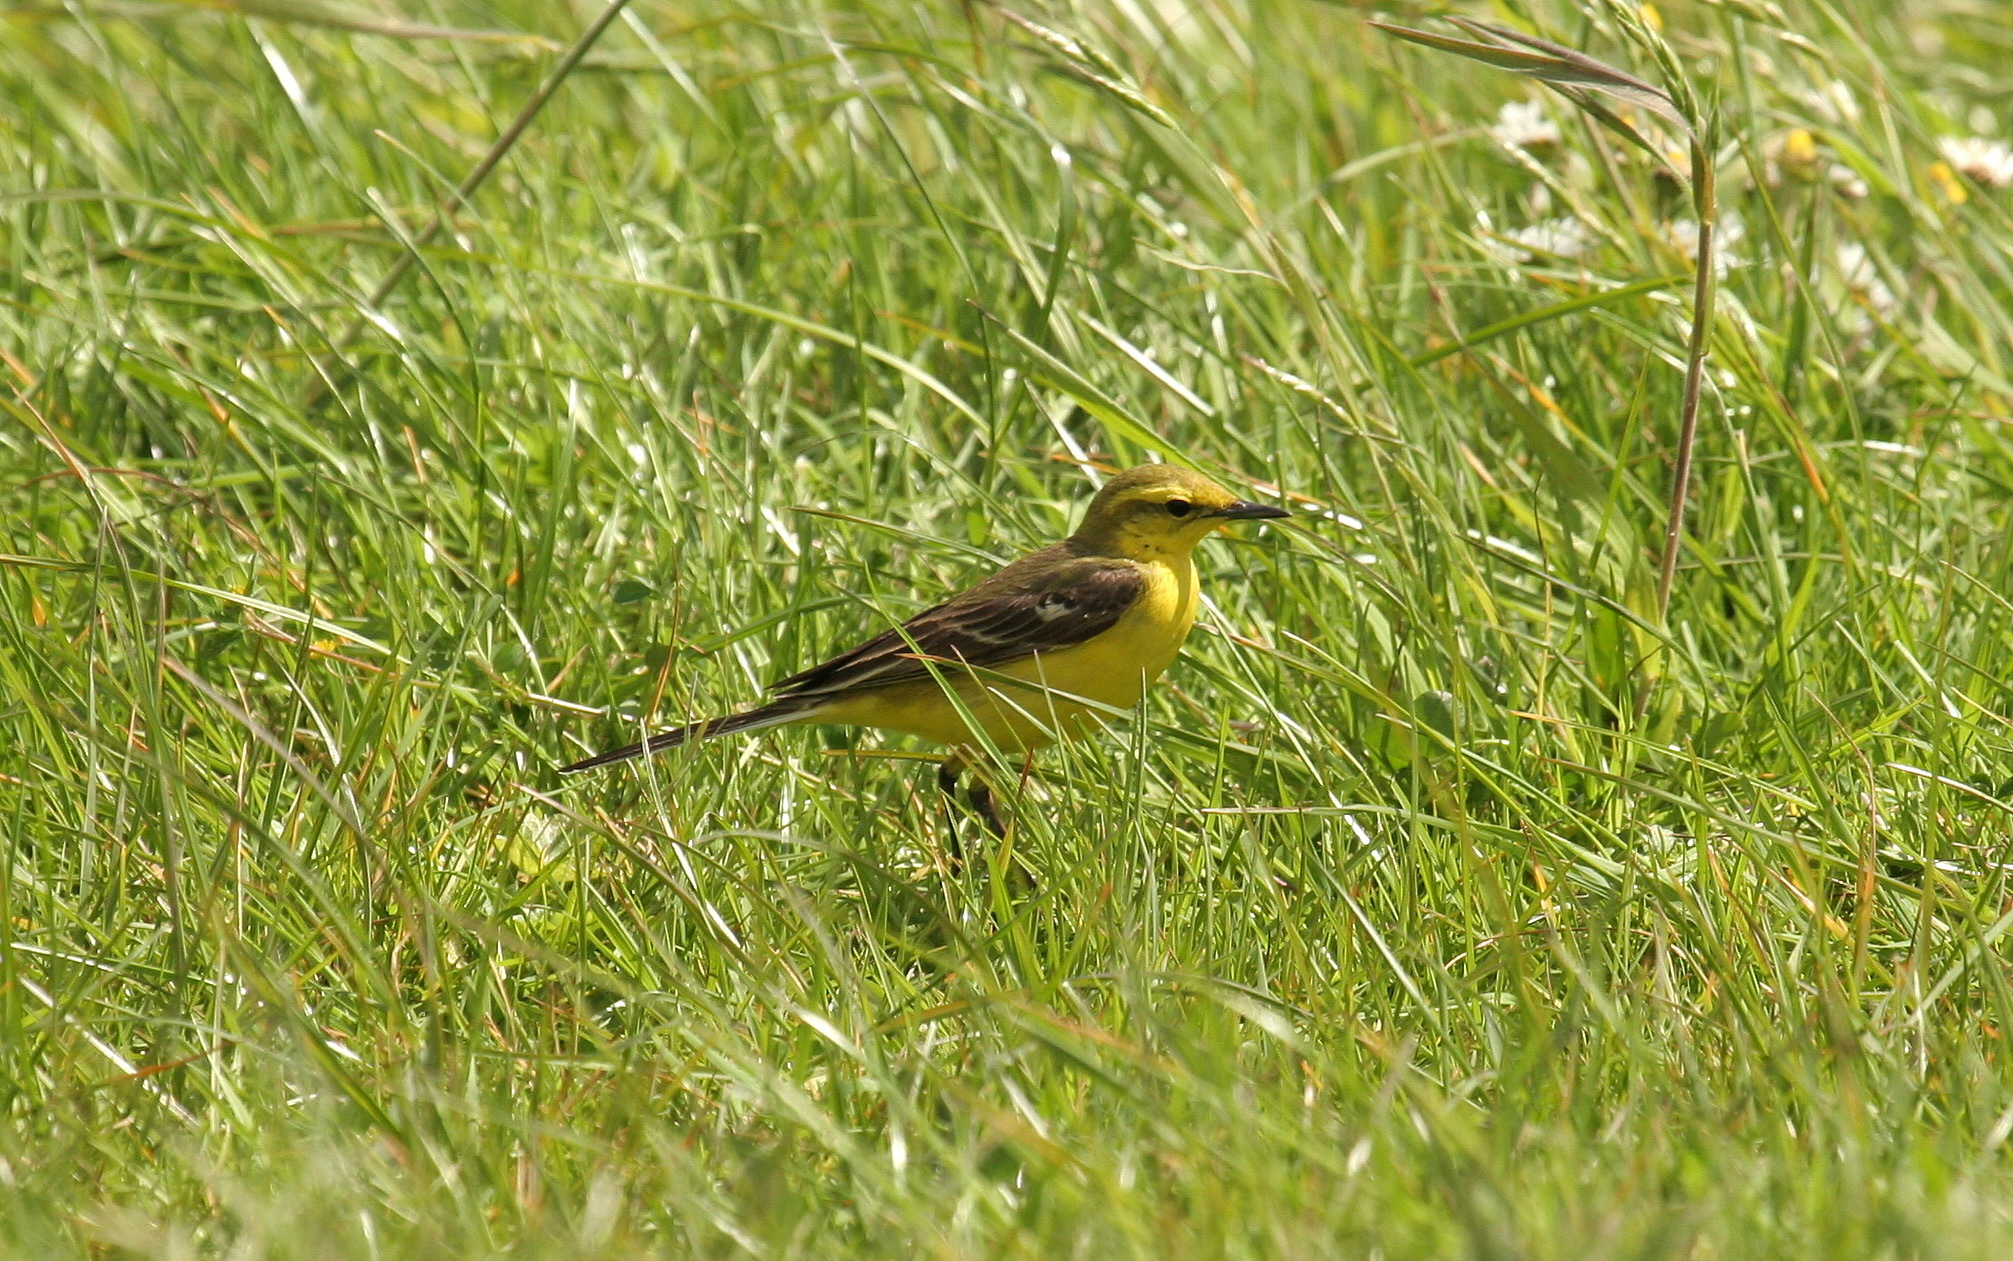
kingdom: Animalia
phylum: Chordata
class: Aves
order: Passeriformes
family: Motacillidae
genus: Motacilla
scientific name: Motacilla flava
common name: Western yellow wagtail
